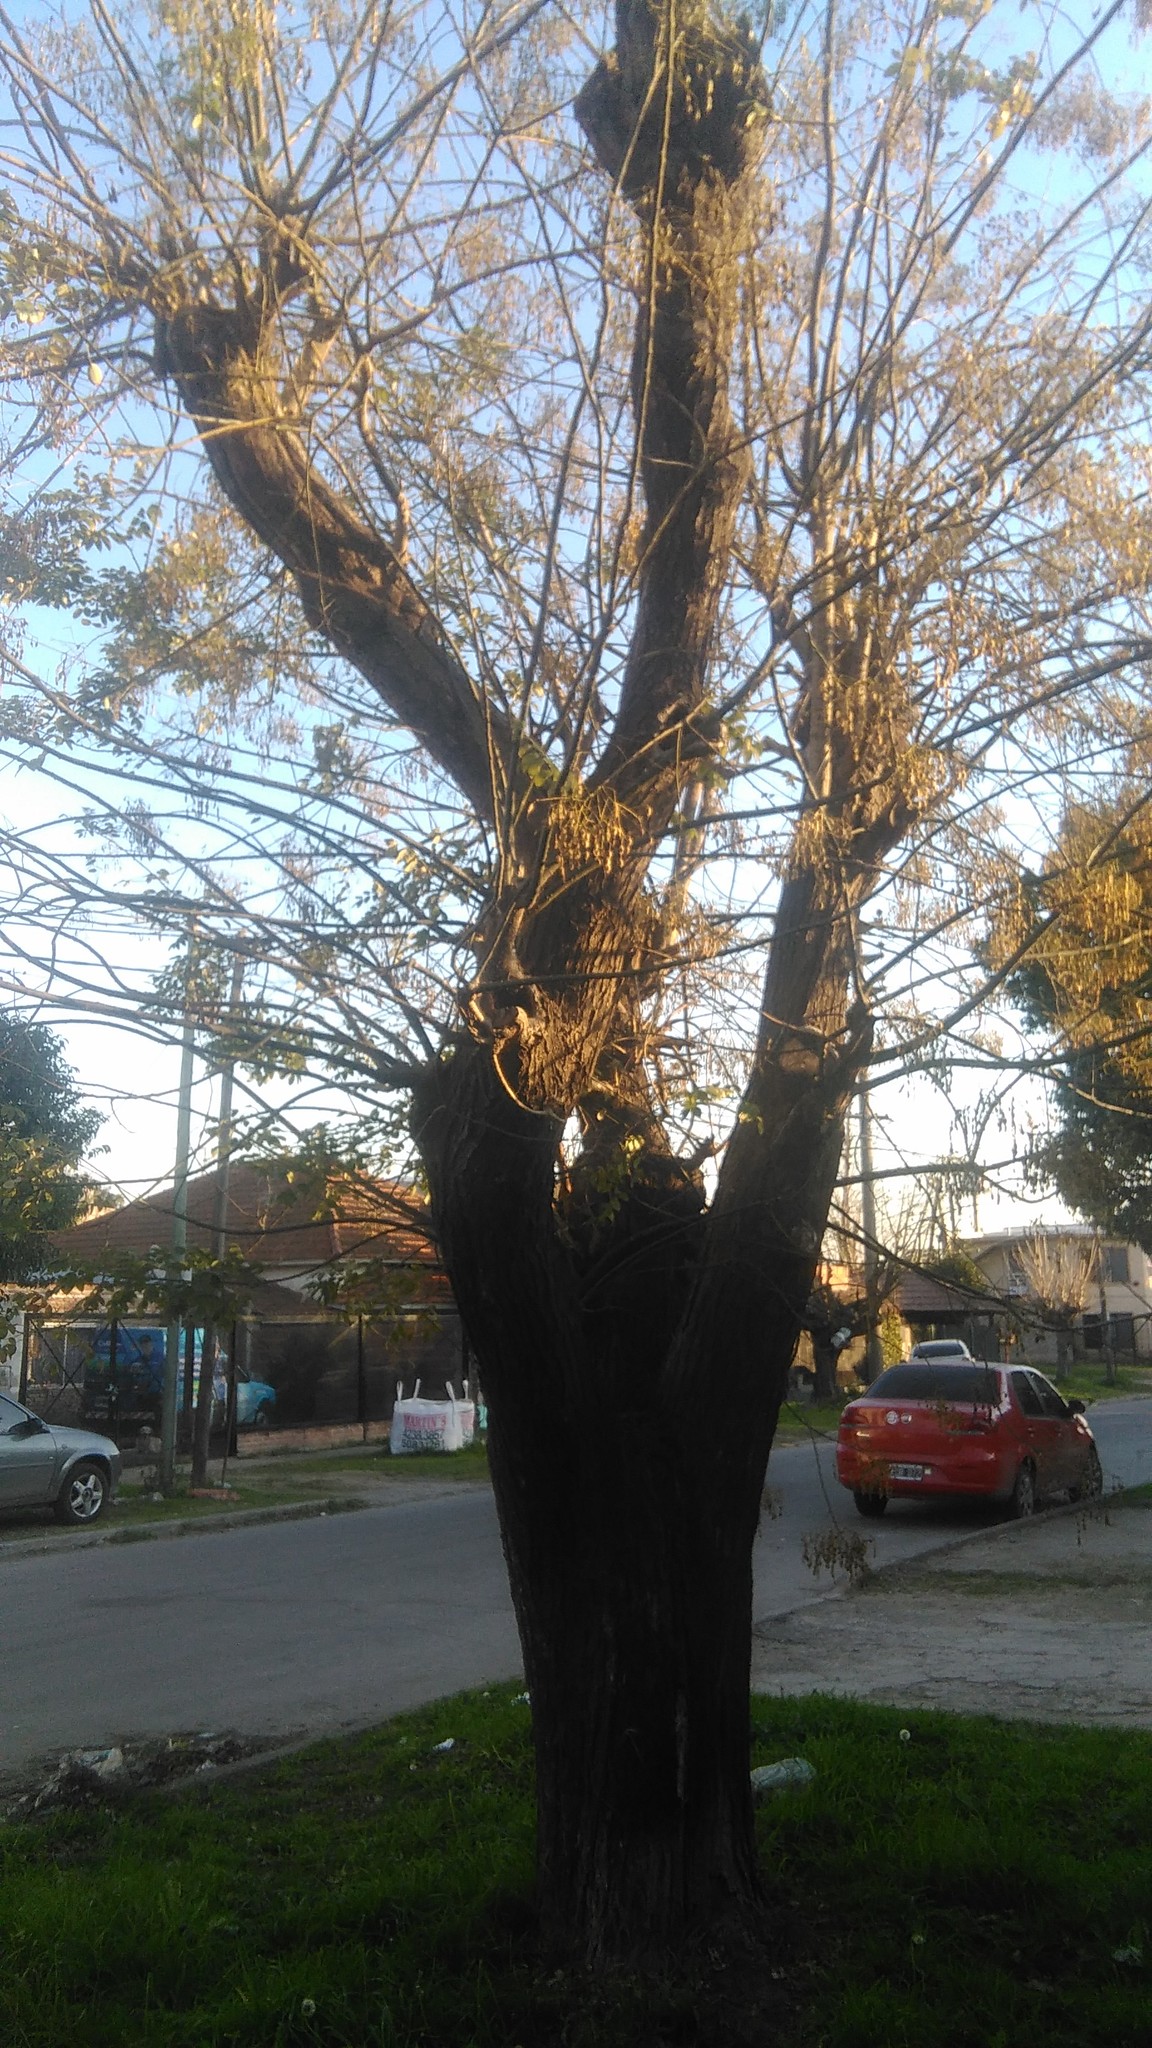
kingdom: Plantae
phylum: Tracheophyta
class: Magnoliopsida
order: Fabales
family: Fabaceae
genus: Styphnolobium
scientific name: Styphnolobium japonicum
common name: Chinese scholartree
